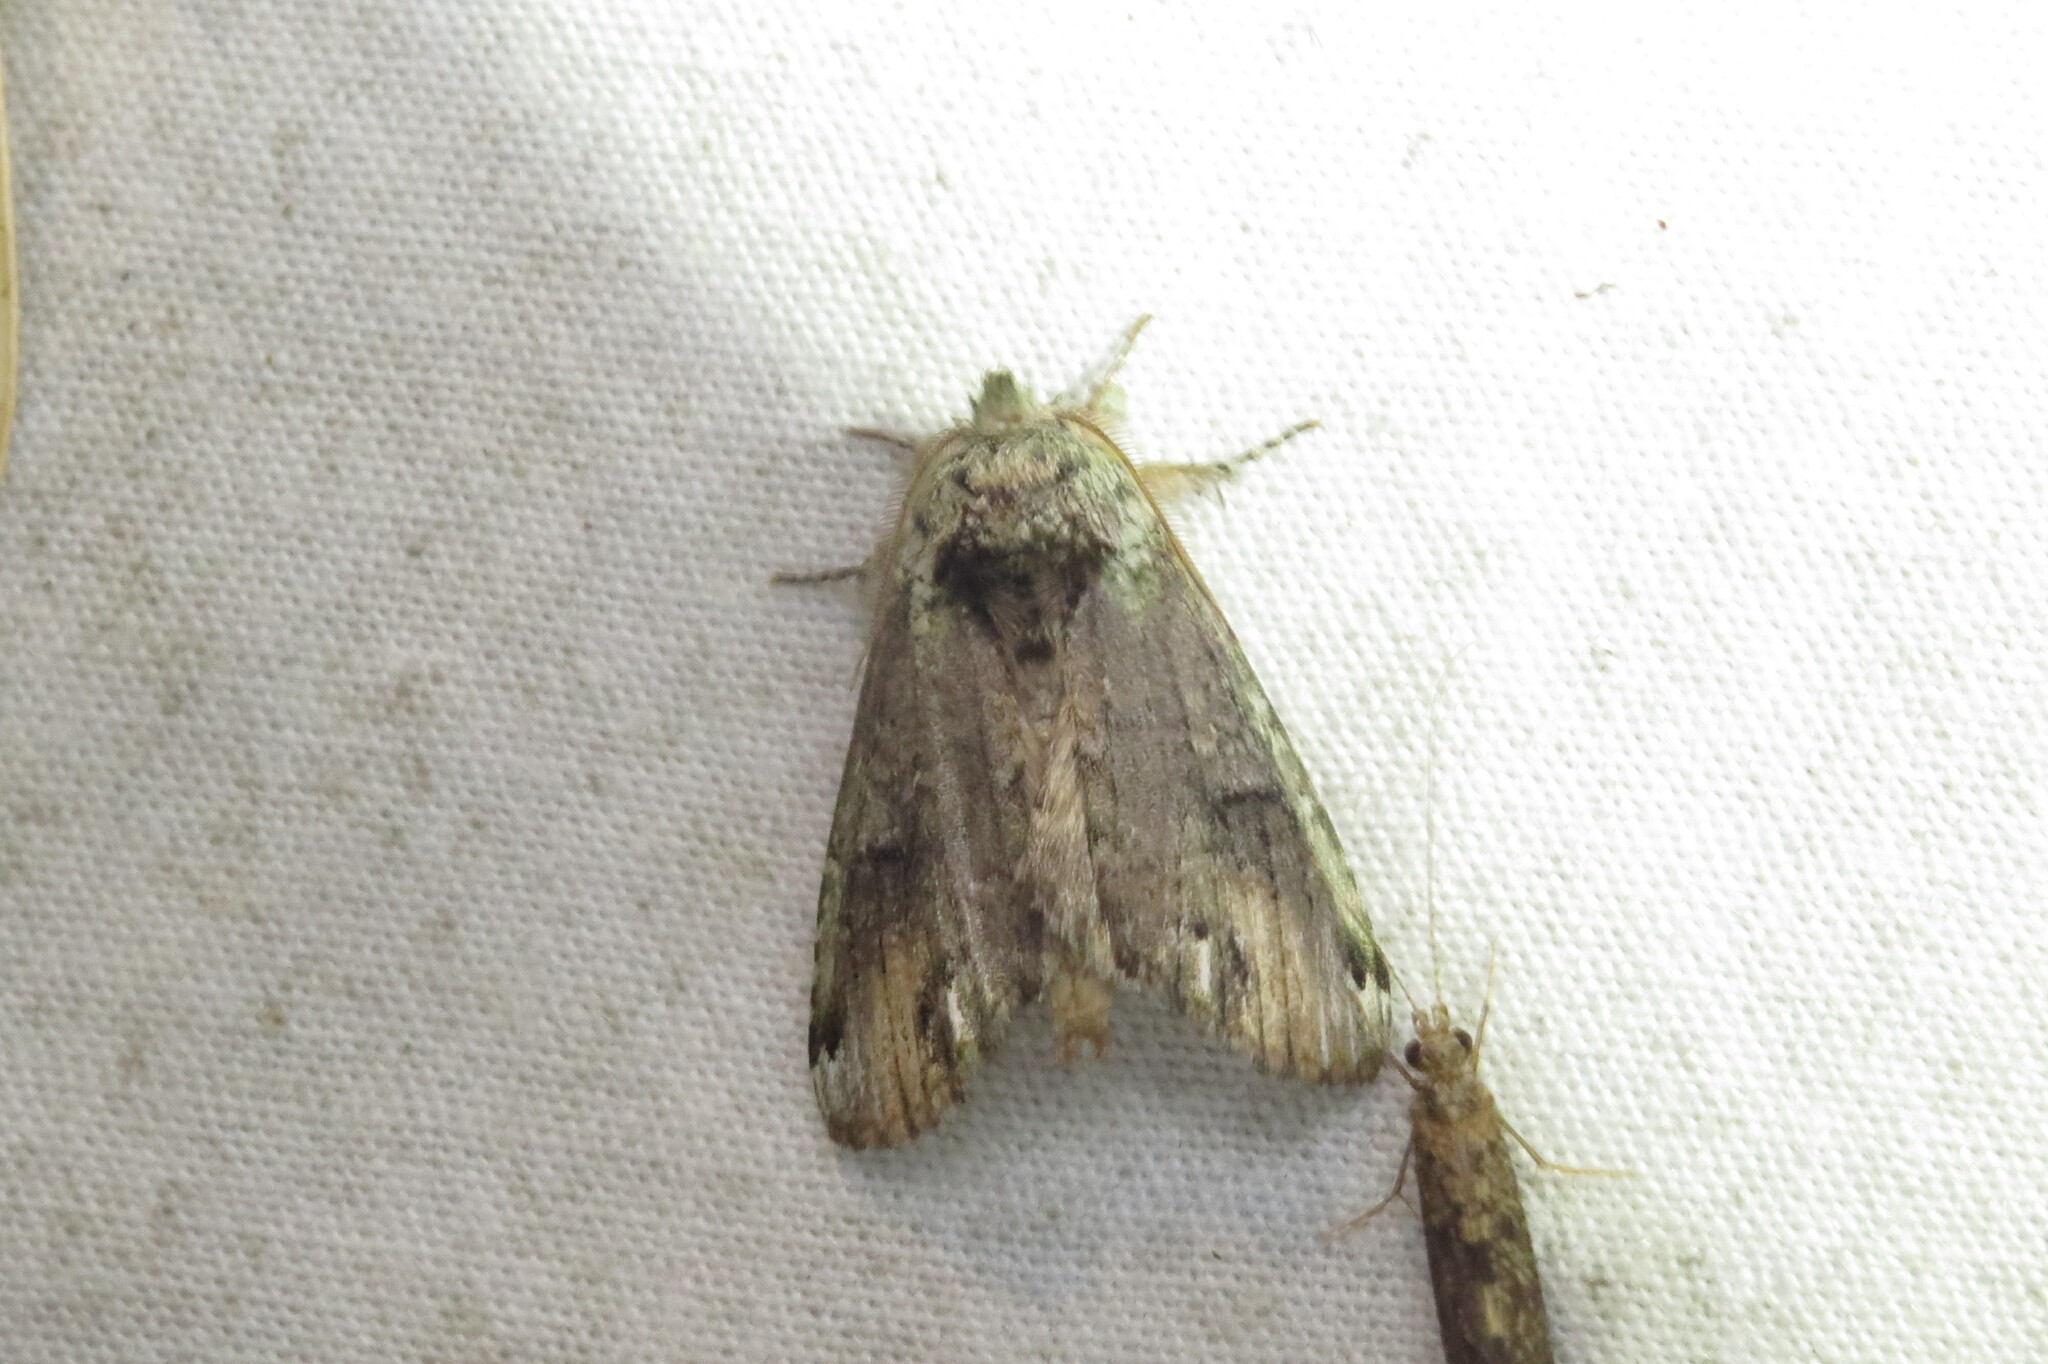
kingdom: Animalia
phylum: Arthropoda
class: Insecta
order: Lepidoptera
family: Notodontidae
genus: Schizura
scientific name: Schizura
